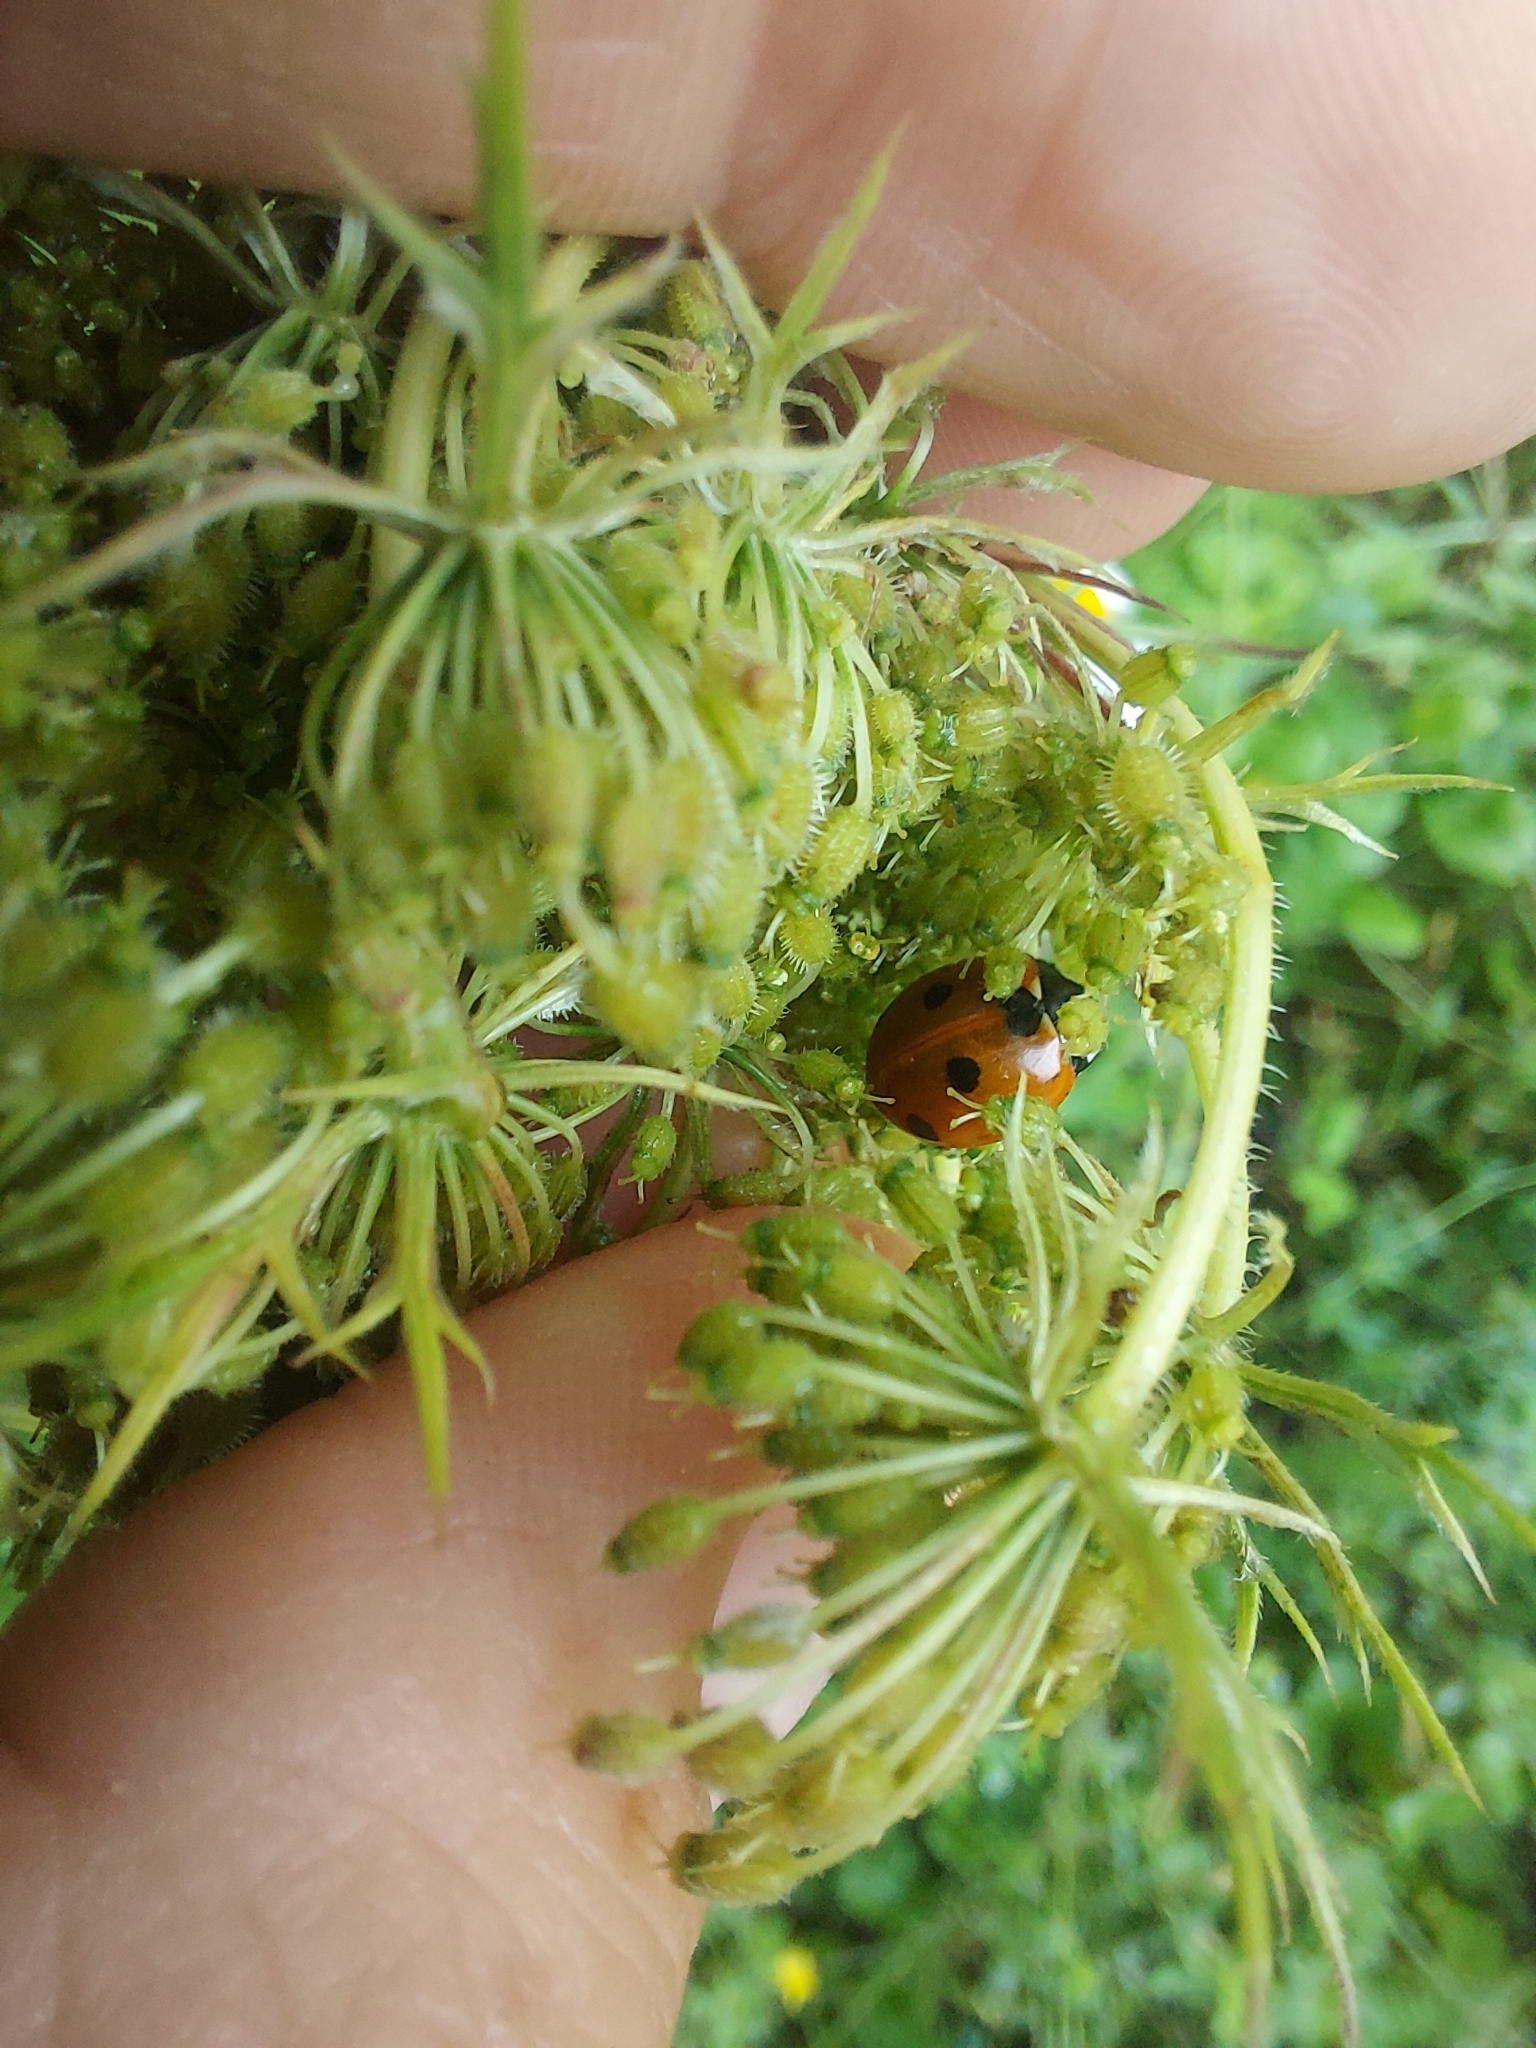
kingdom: Animalia
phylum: Arthropoda
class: Insecta
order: Coleoptera
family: Coccinellidae
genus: Coccinella
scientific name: Coccinella septempunctata
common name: Sevenspotted lady beetle
